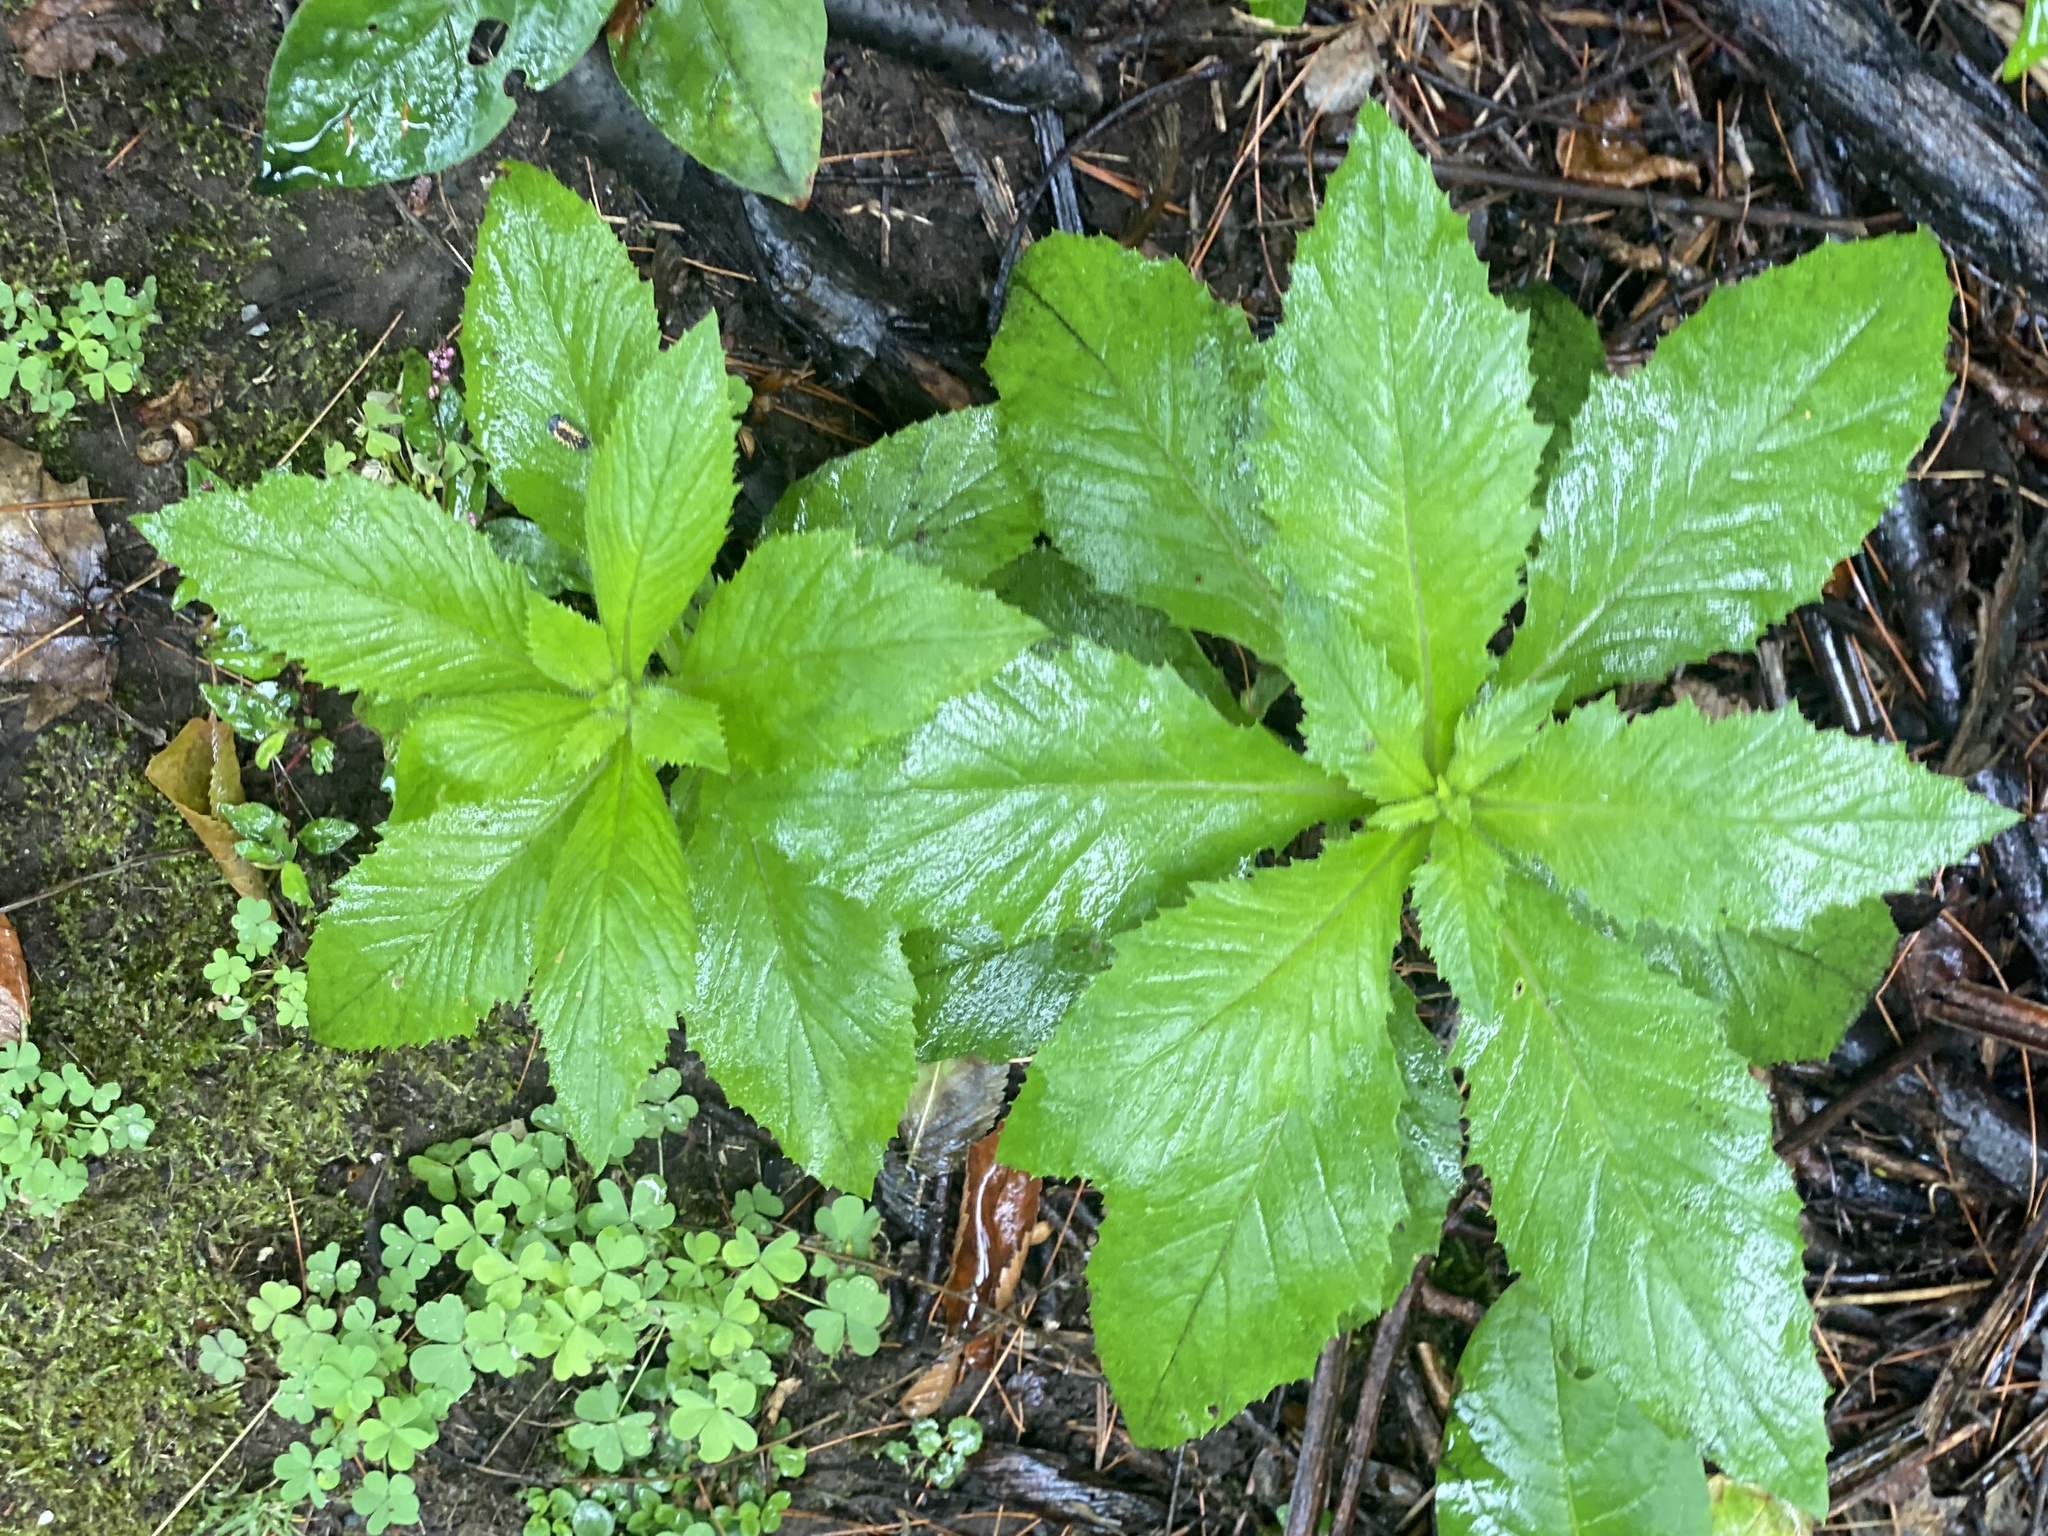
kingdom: Plantae
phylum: Tracheophyta
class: Magnoliopsida
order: Asterales
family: Asteraceae
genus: Erechtites
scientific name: Erechtites hieraciifolius
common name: American burnweed
